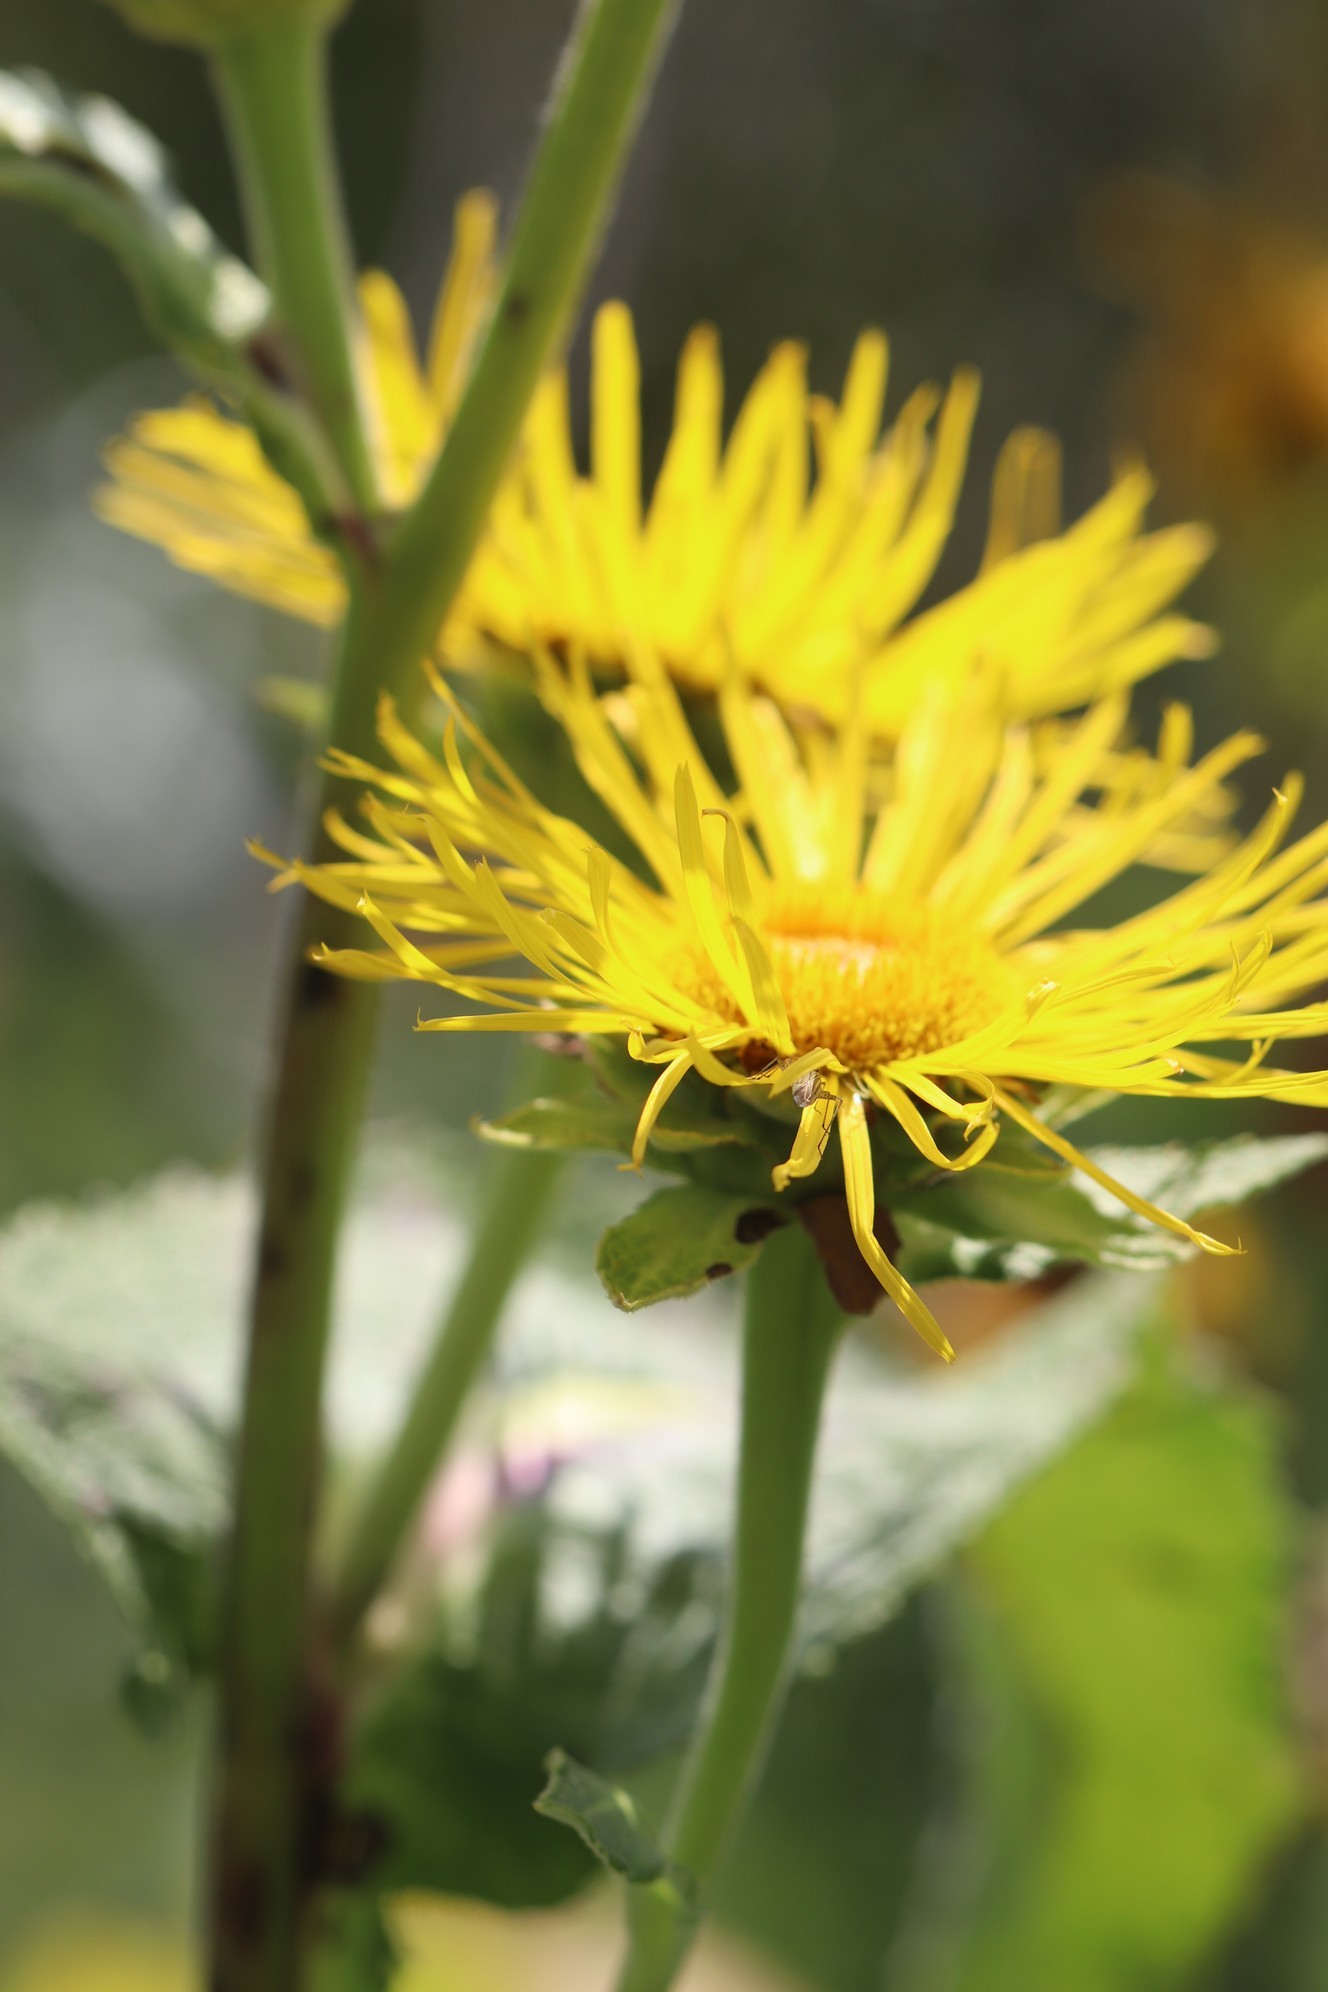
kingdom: Plantae
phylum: Tracheophyta
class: Magnoliopsida
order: Asterales
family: Asteraceae
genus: Inula
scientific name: Inula helenium
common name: Elecampane
